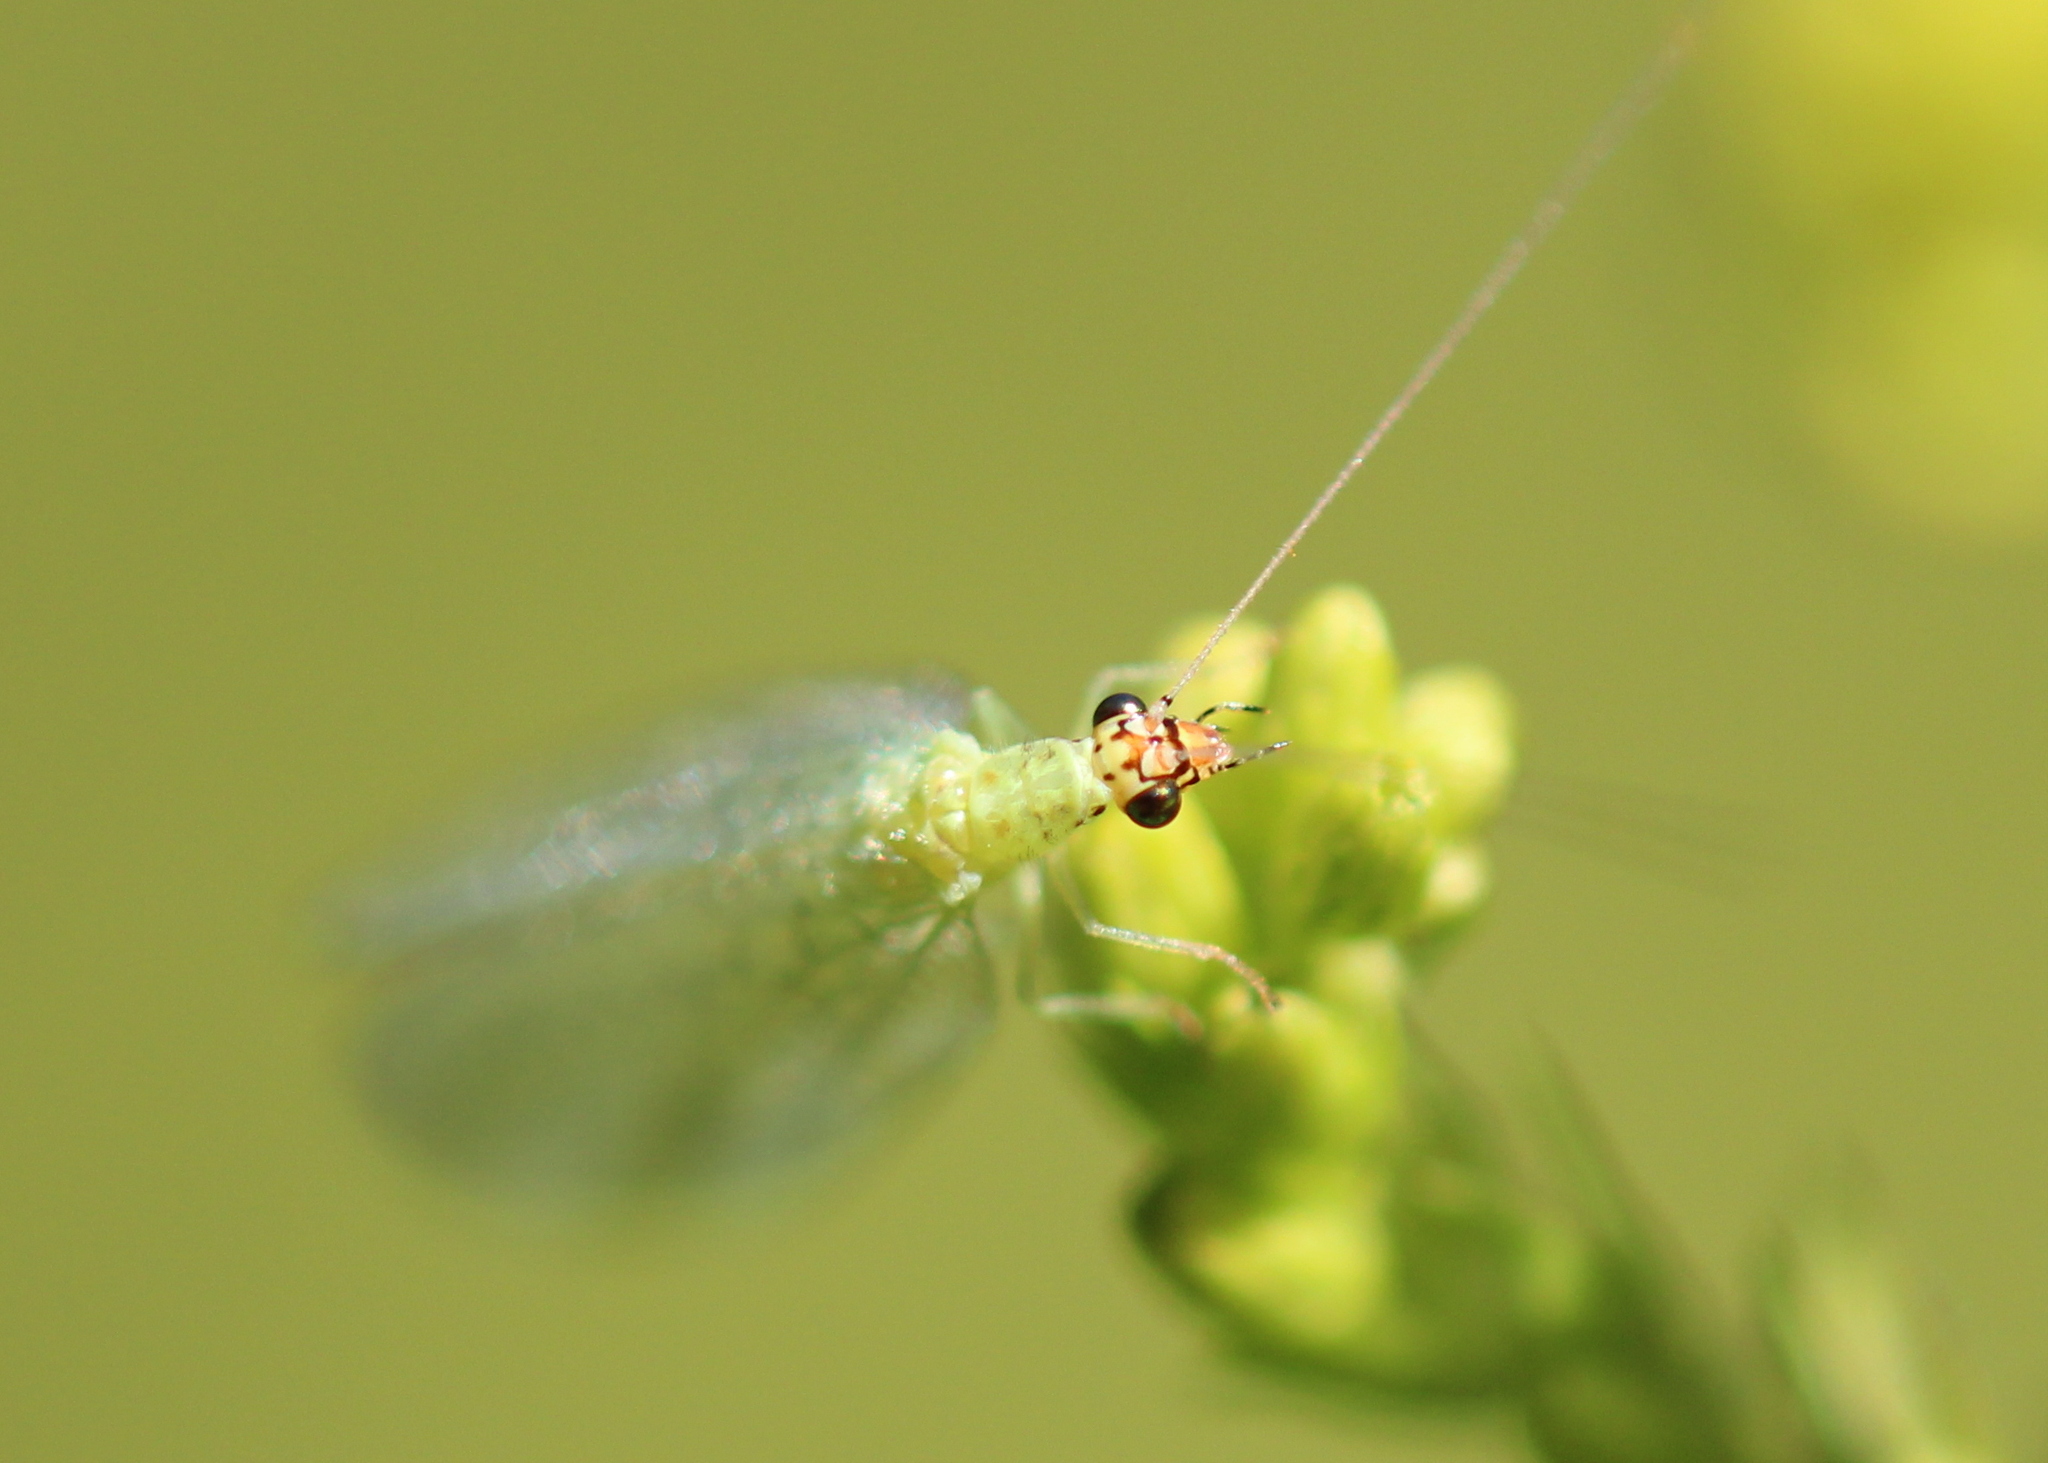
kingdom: Animalia
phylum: Arthropoda
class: Insecta
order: Neuroptera
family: Chrysopidae
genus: Chrysopa
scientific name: Chrysopa oculata
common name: Golden-eyed lacewing
